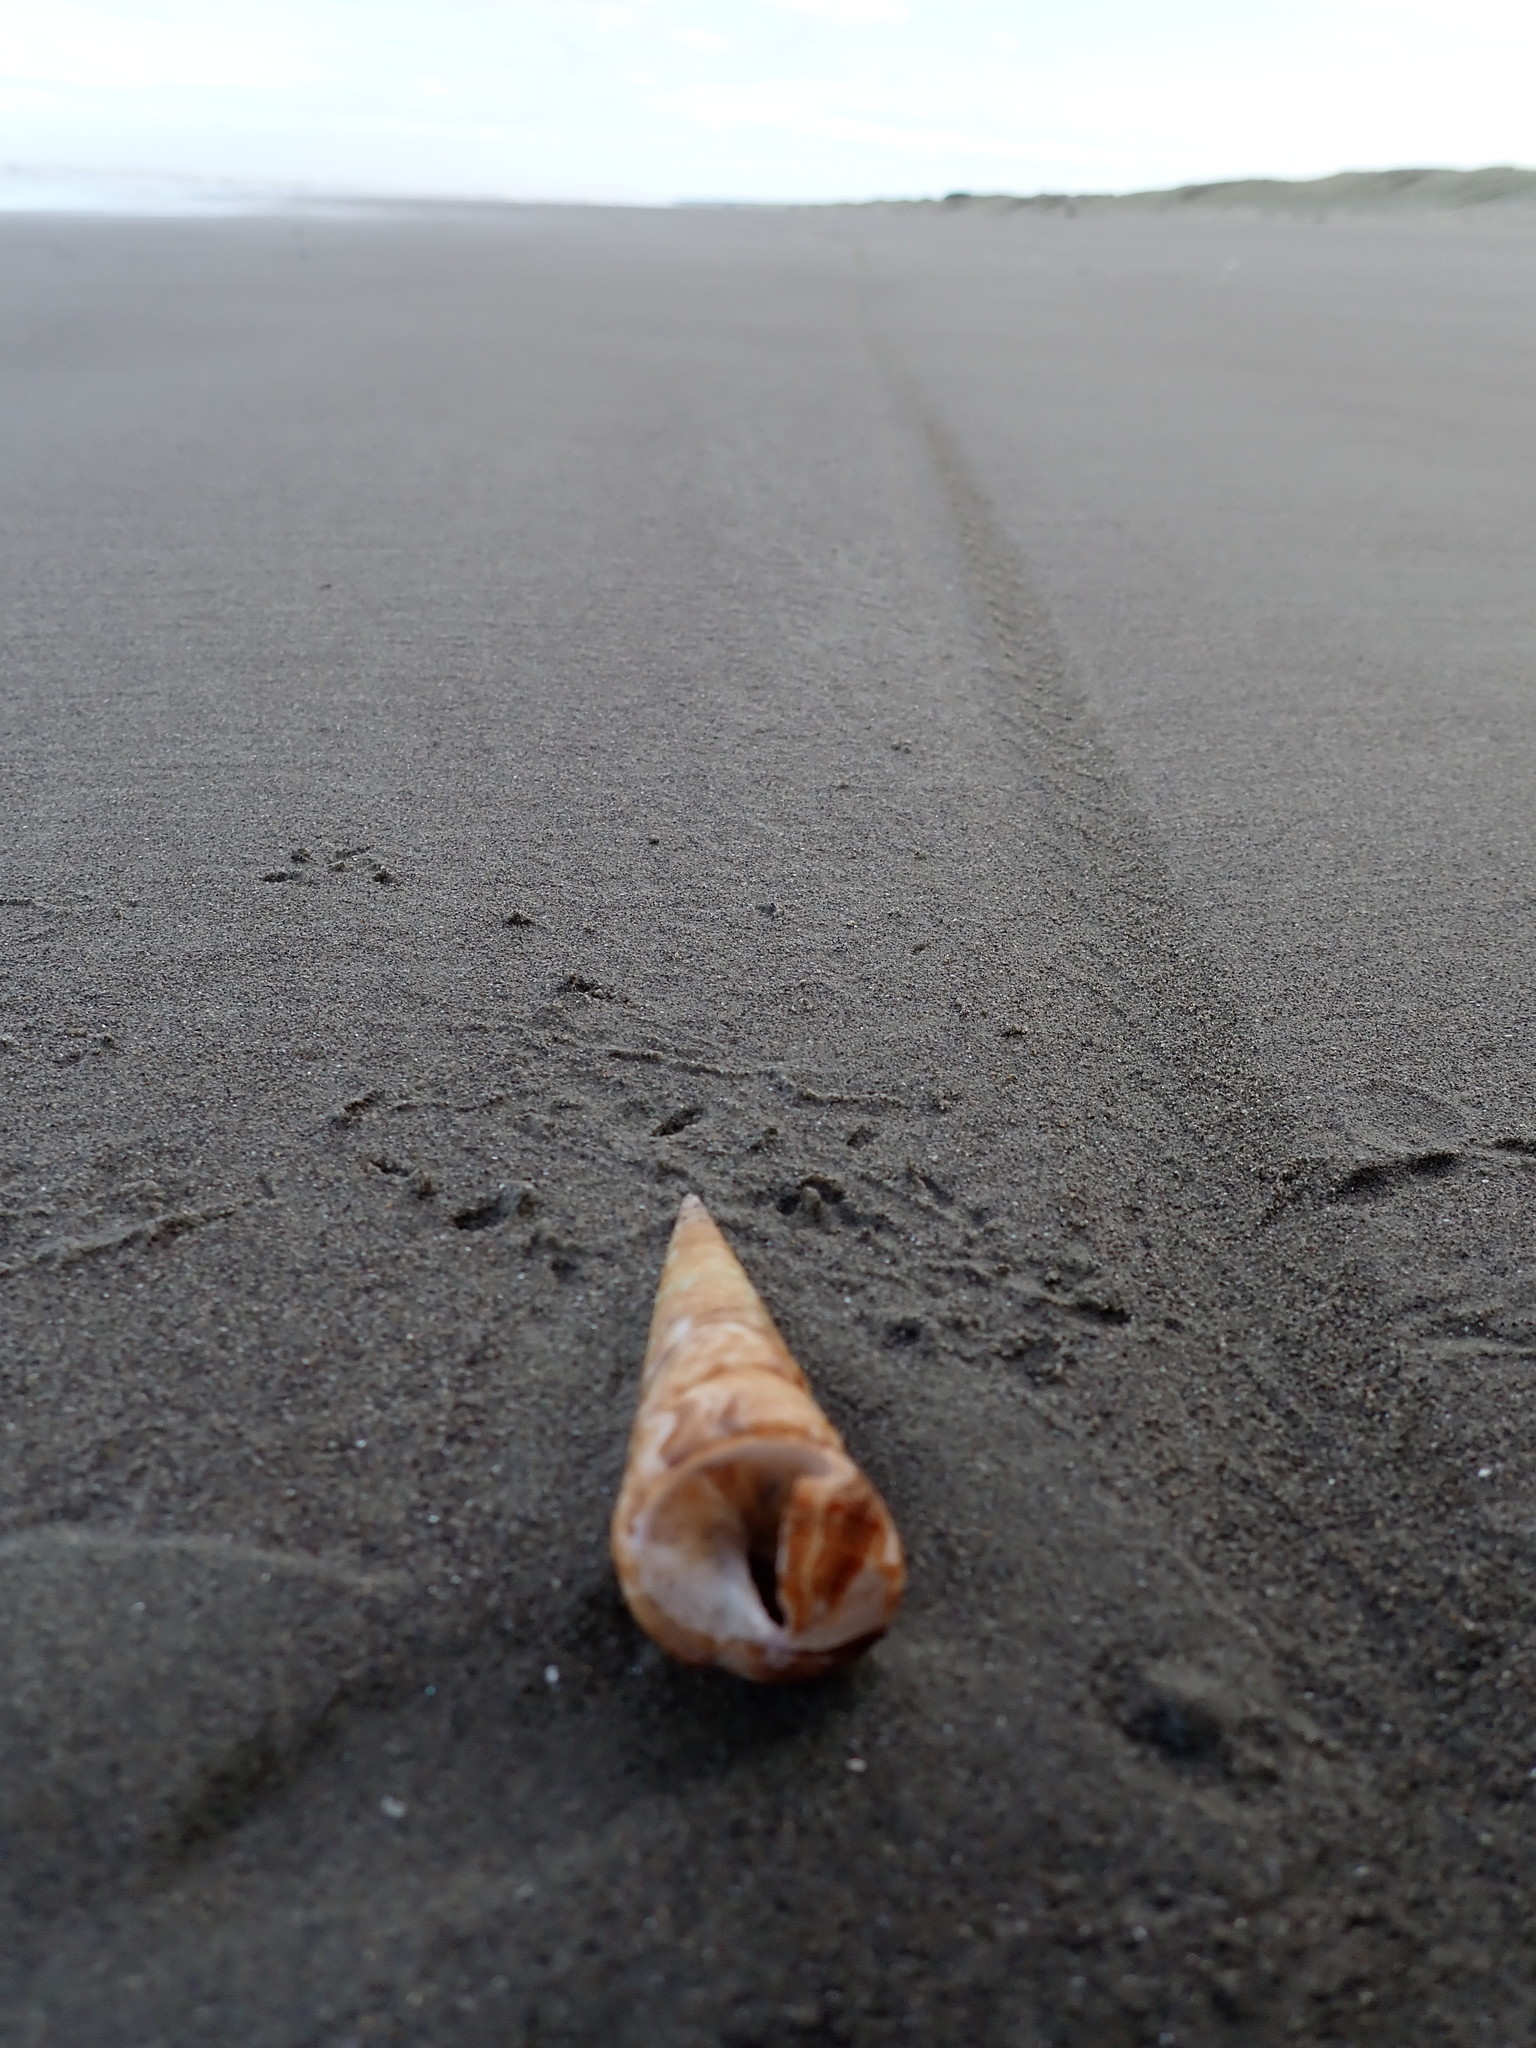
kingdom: Animalia
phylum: Mollusca
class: Gastropoda
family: Turritellidae
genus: Maoricolpus
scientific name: Maoricolpus roseus
